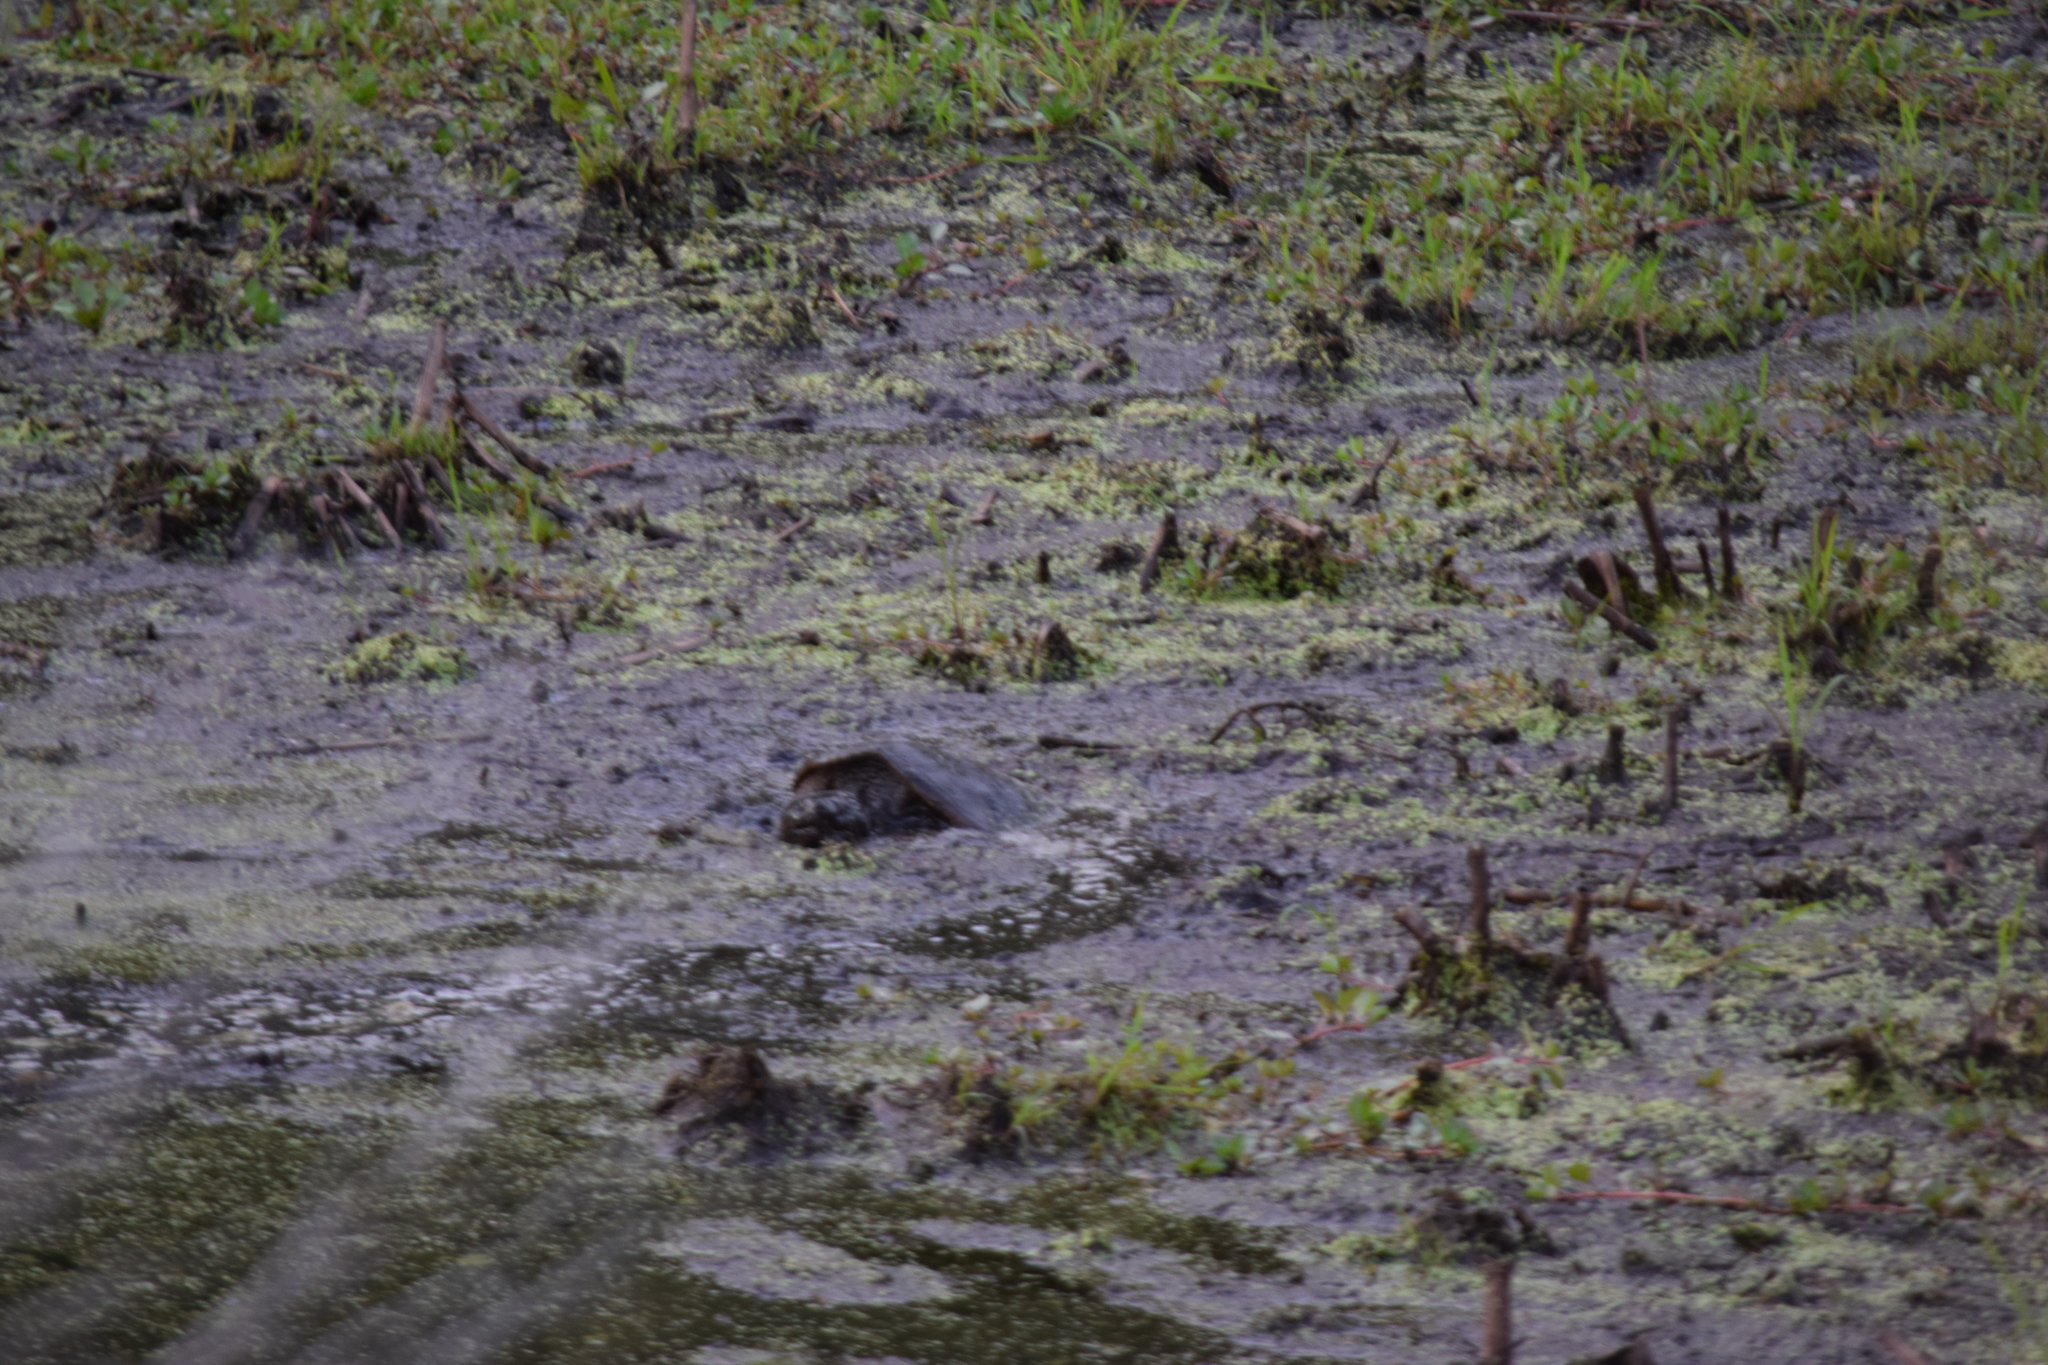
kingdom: Animalia
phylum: Chordata
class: Testudines
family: Chelydridae
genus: Chelydra
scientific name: Chelydra serpentina
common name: Common snapping turtle
